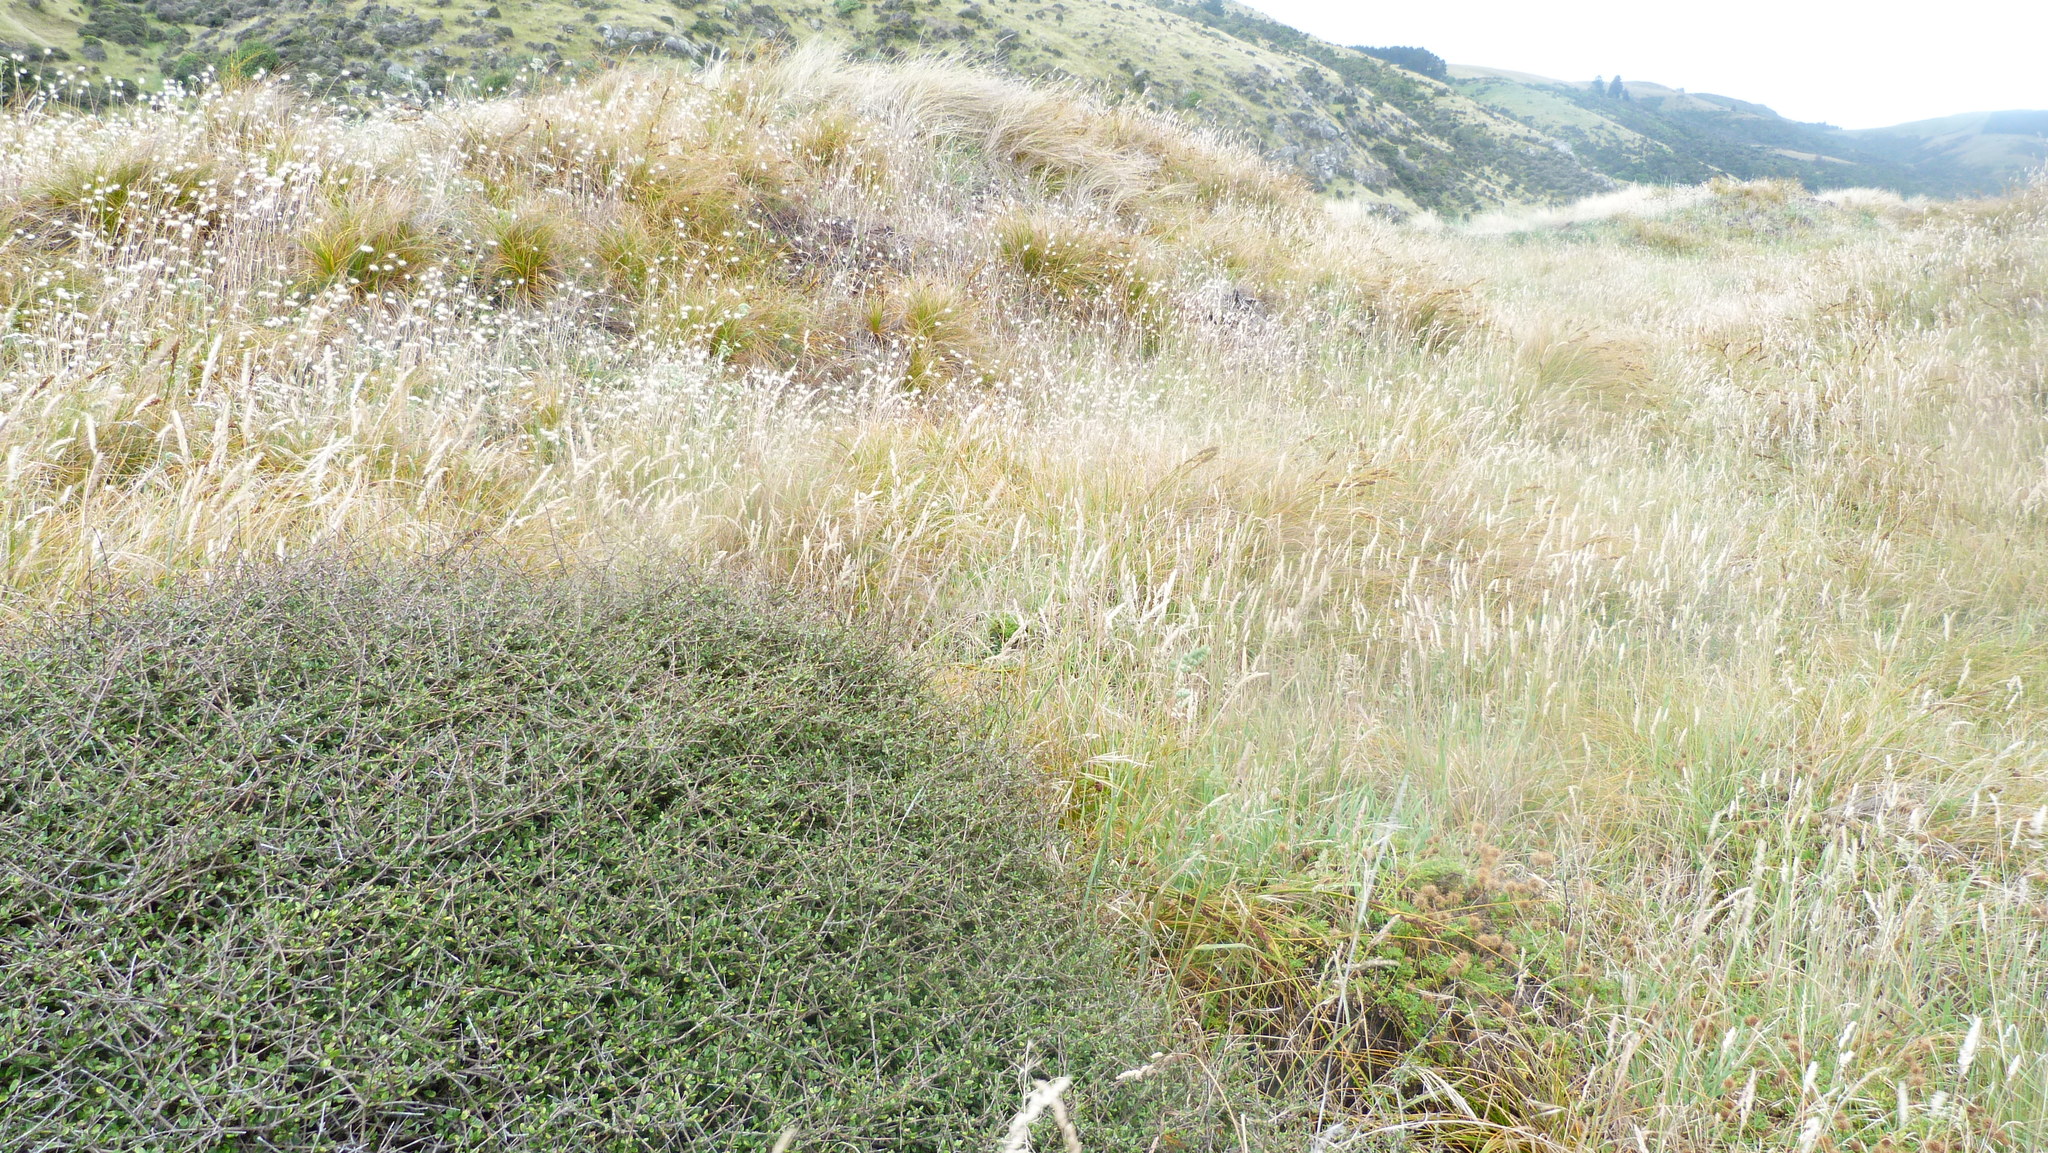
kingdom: Plantae
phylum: Tracheophyta
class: Magnoliopsida
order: Gentianales
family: Rubiaceae
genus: Coprosma
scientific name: Coprosma propinqua
